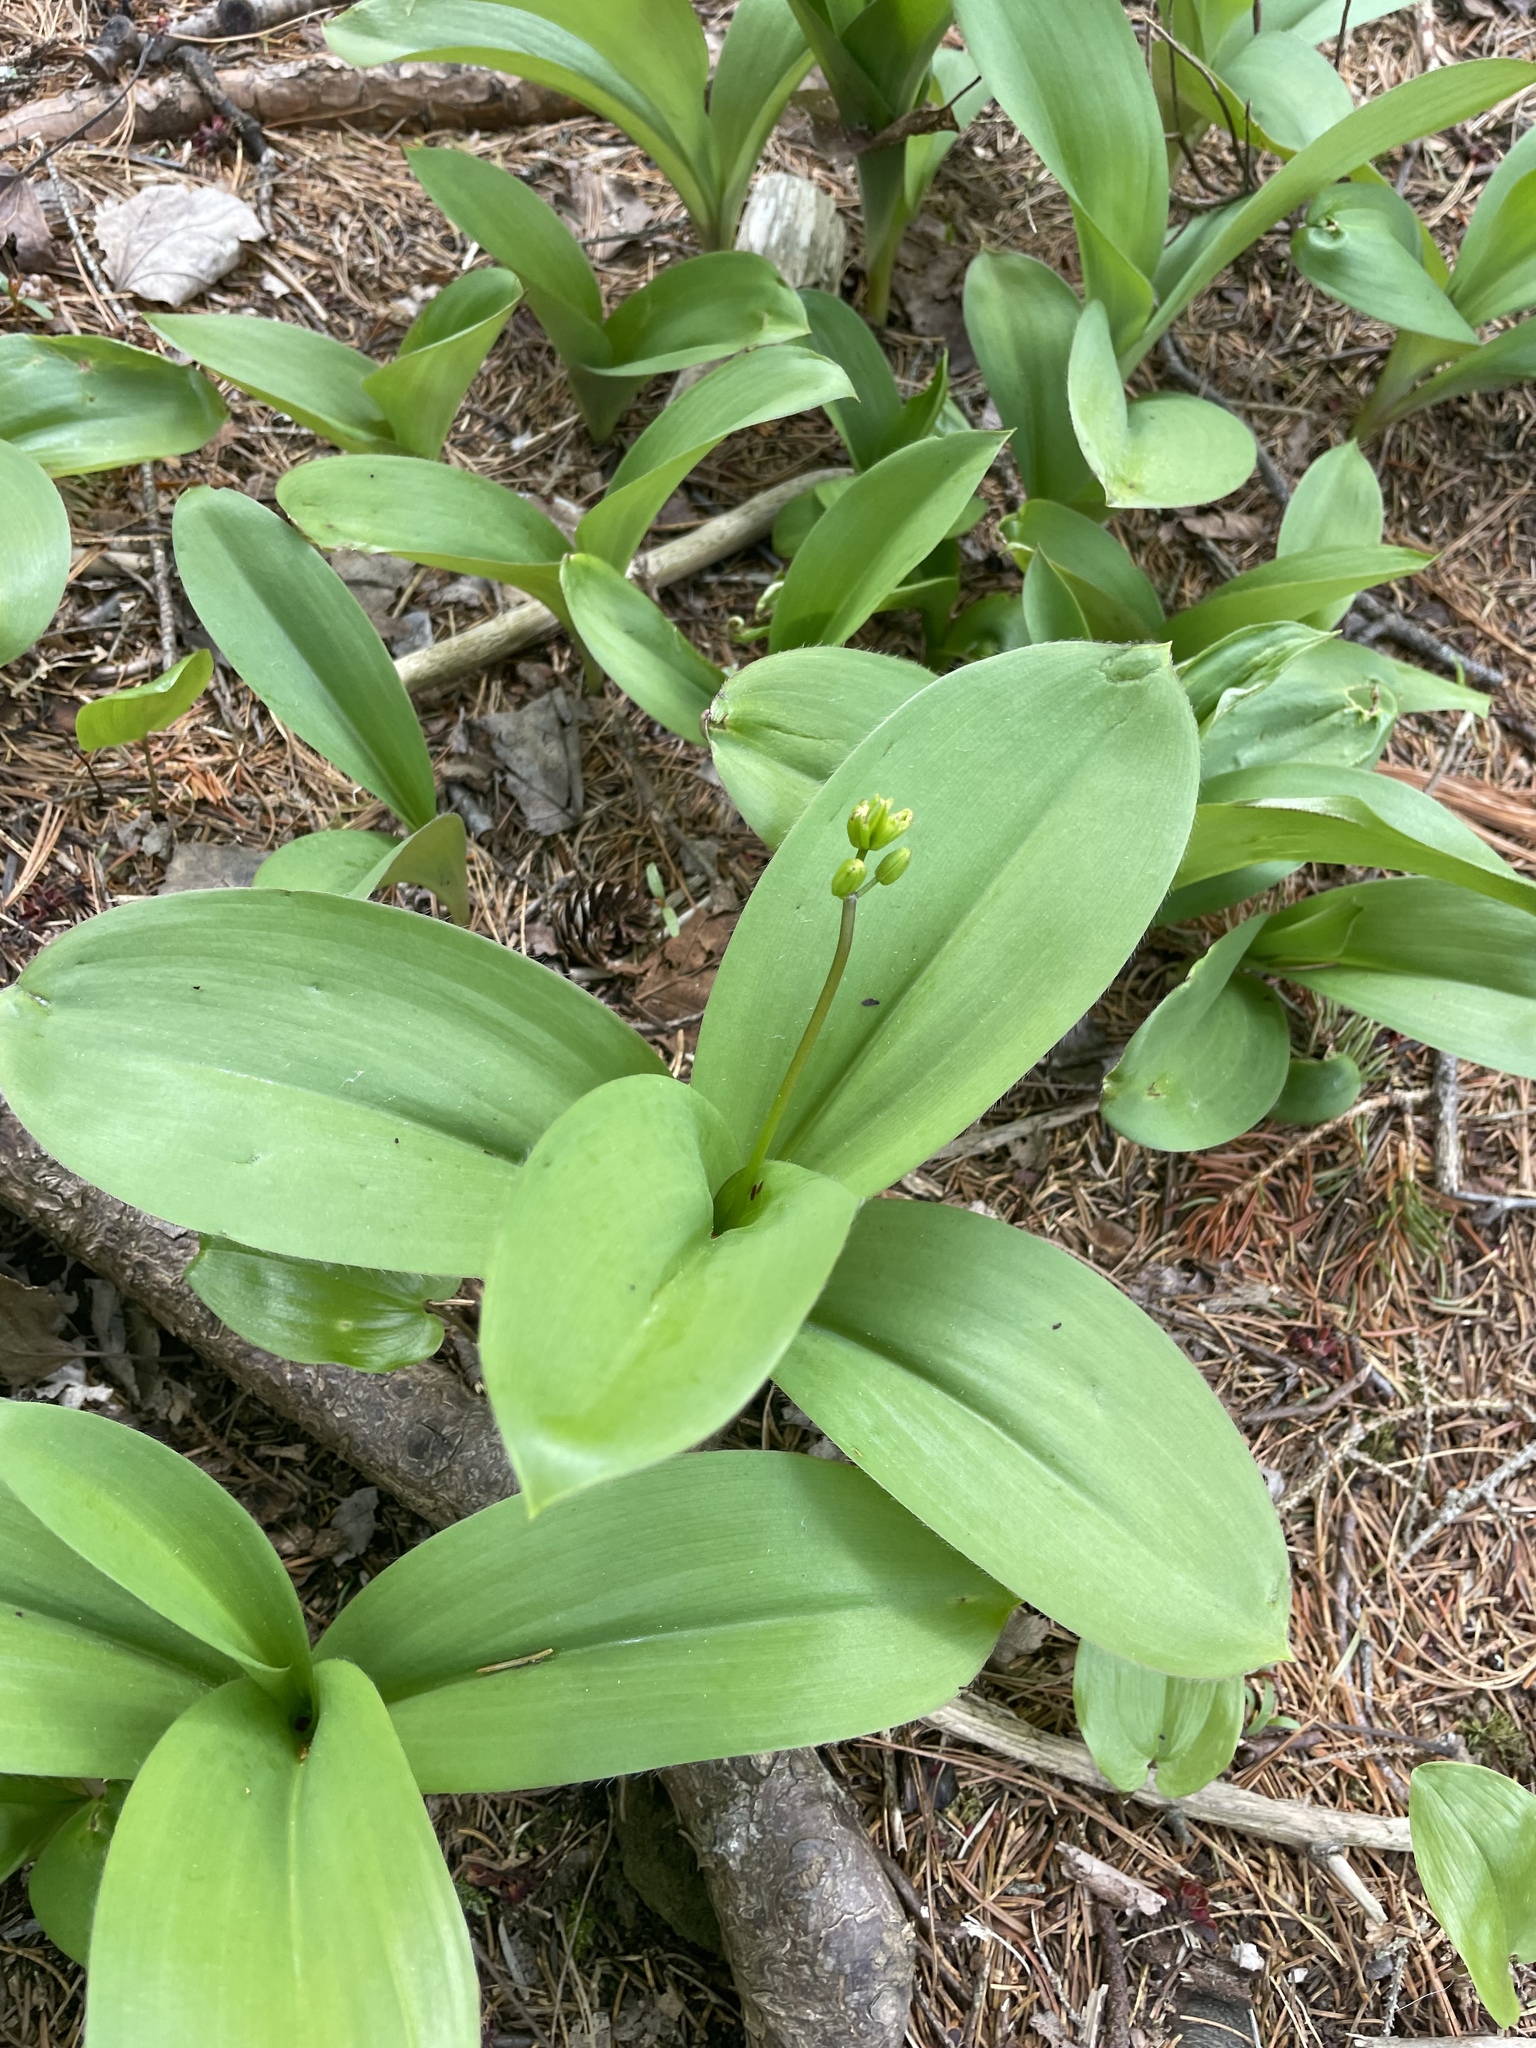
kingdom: Plantae
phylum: Tracheophyta
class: Liliopsida
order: Liliales
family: Liliaceae
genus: Clintonia
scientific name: Clintonia borealis
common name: Yellow clintonia
